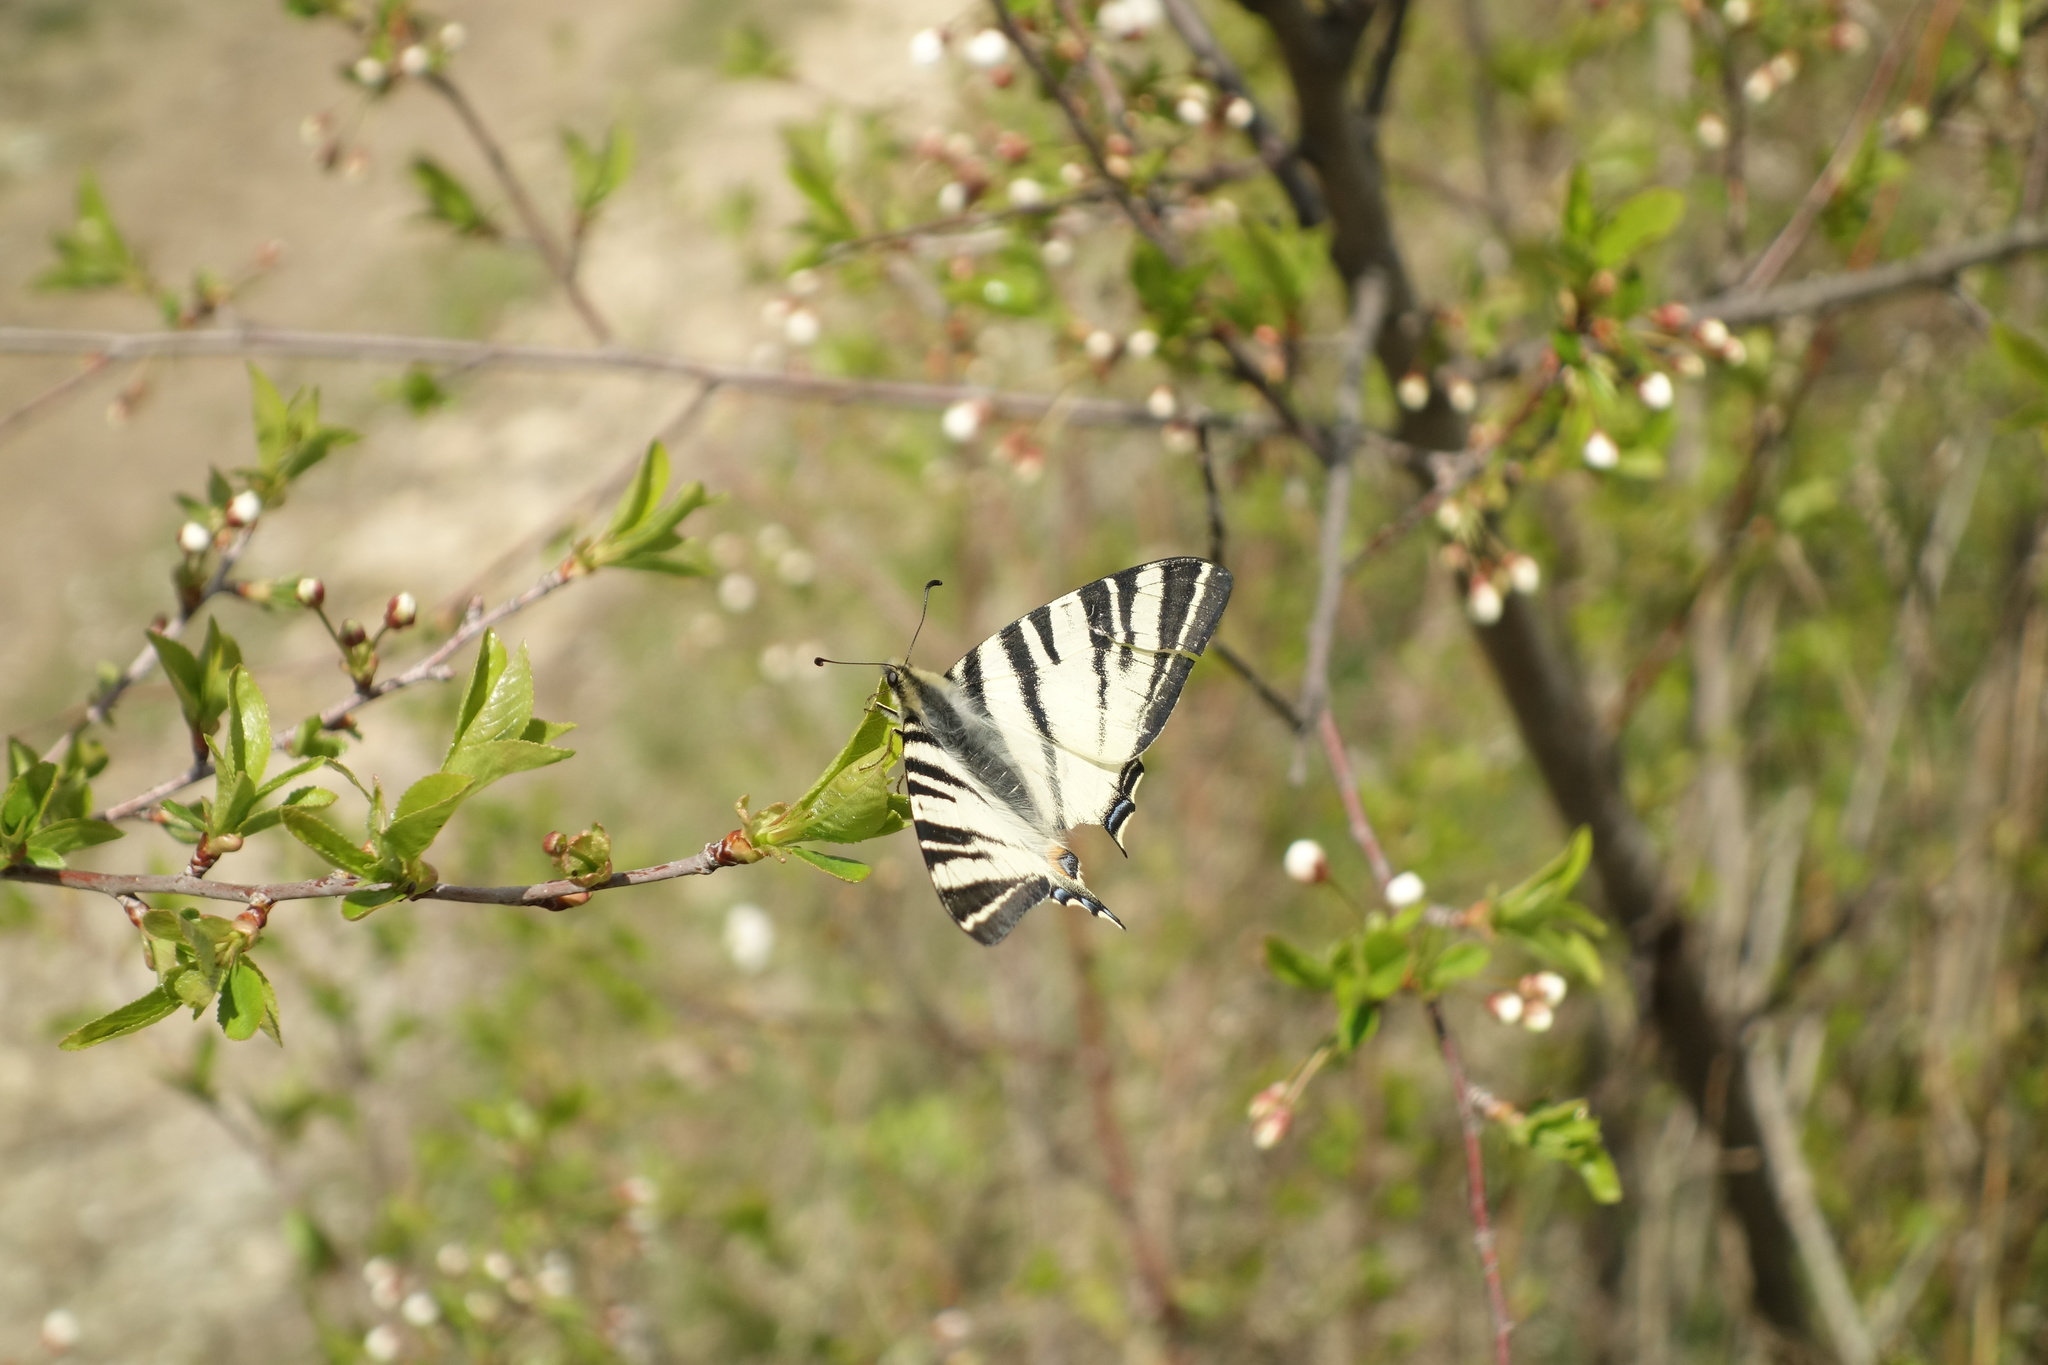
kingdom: Animalia
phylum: Arthropoda
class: Insecta
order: Lepidoptera
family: Papilionidae
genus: Iphiclides
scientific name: Iphiclides podalirius
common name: Scarce swallowtail
